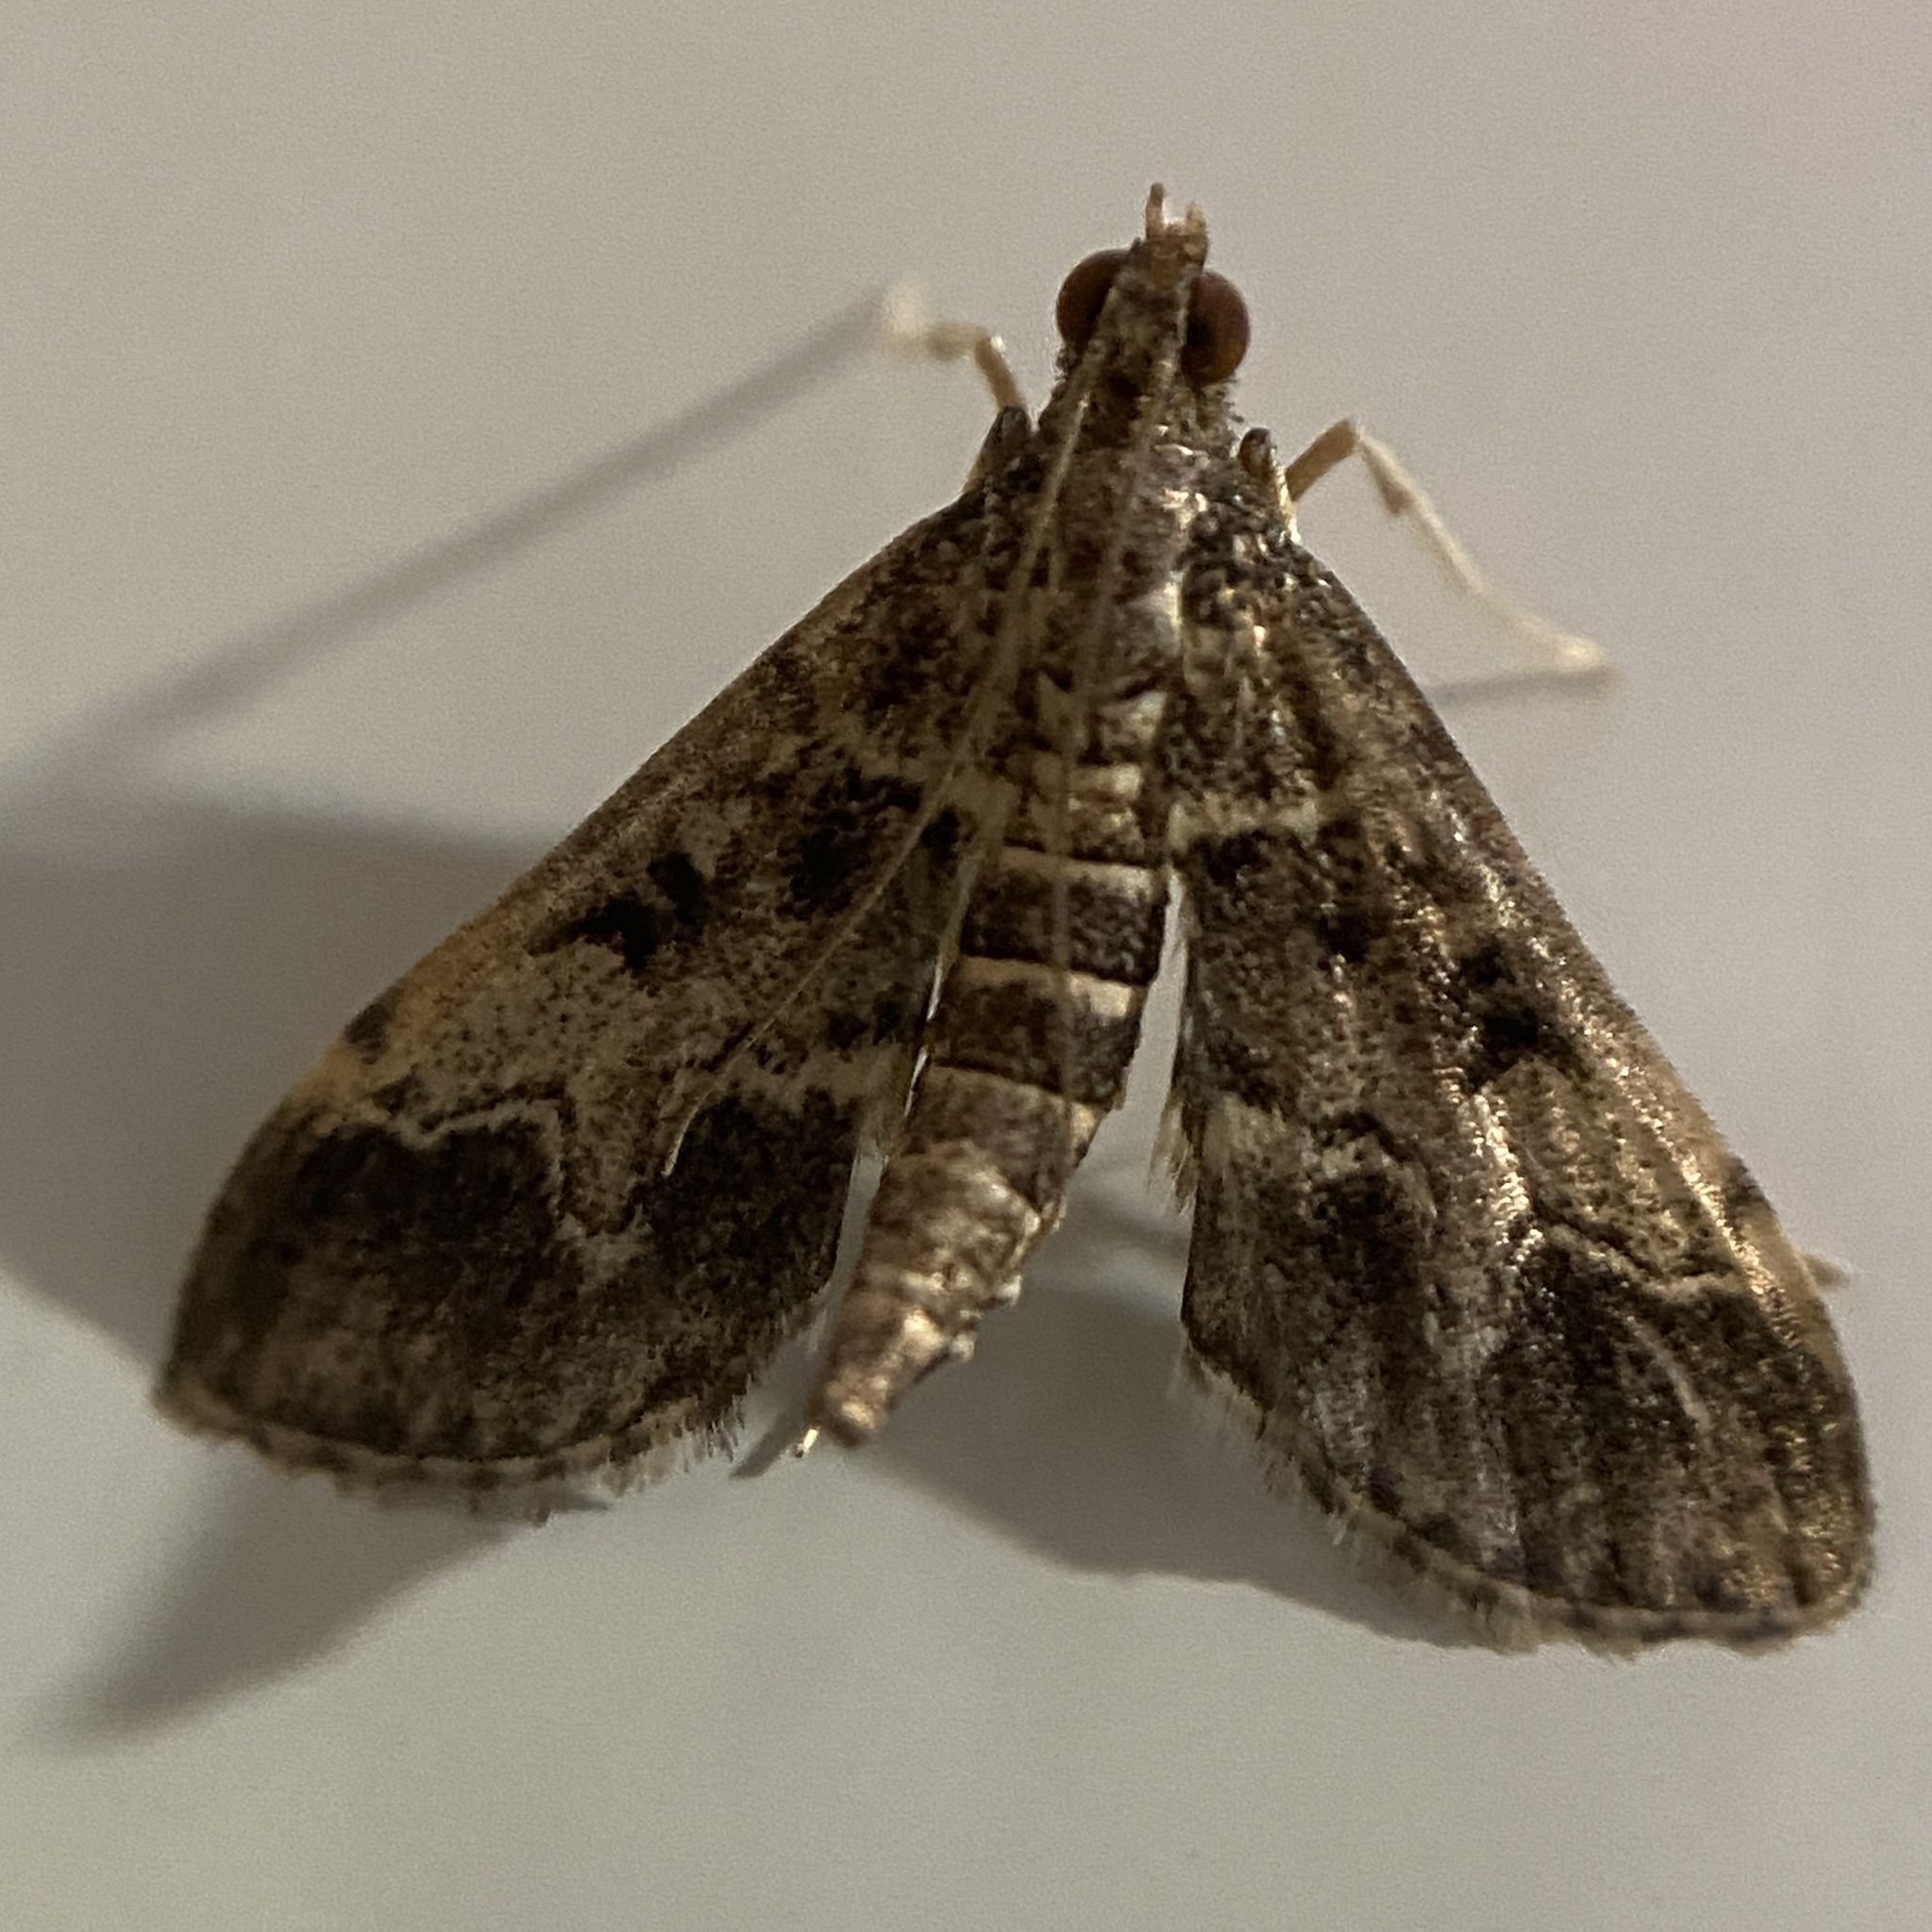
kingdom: Animalia
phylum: Arthropoda
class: Insecta
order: Lepidoptera
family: Crambidae
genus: Duponchelia
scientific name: Duponchelia fovealis
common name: Crambid moth
